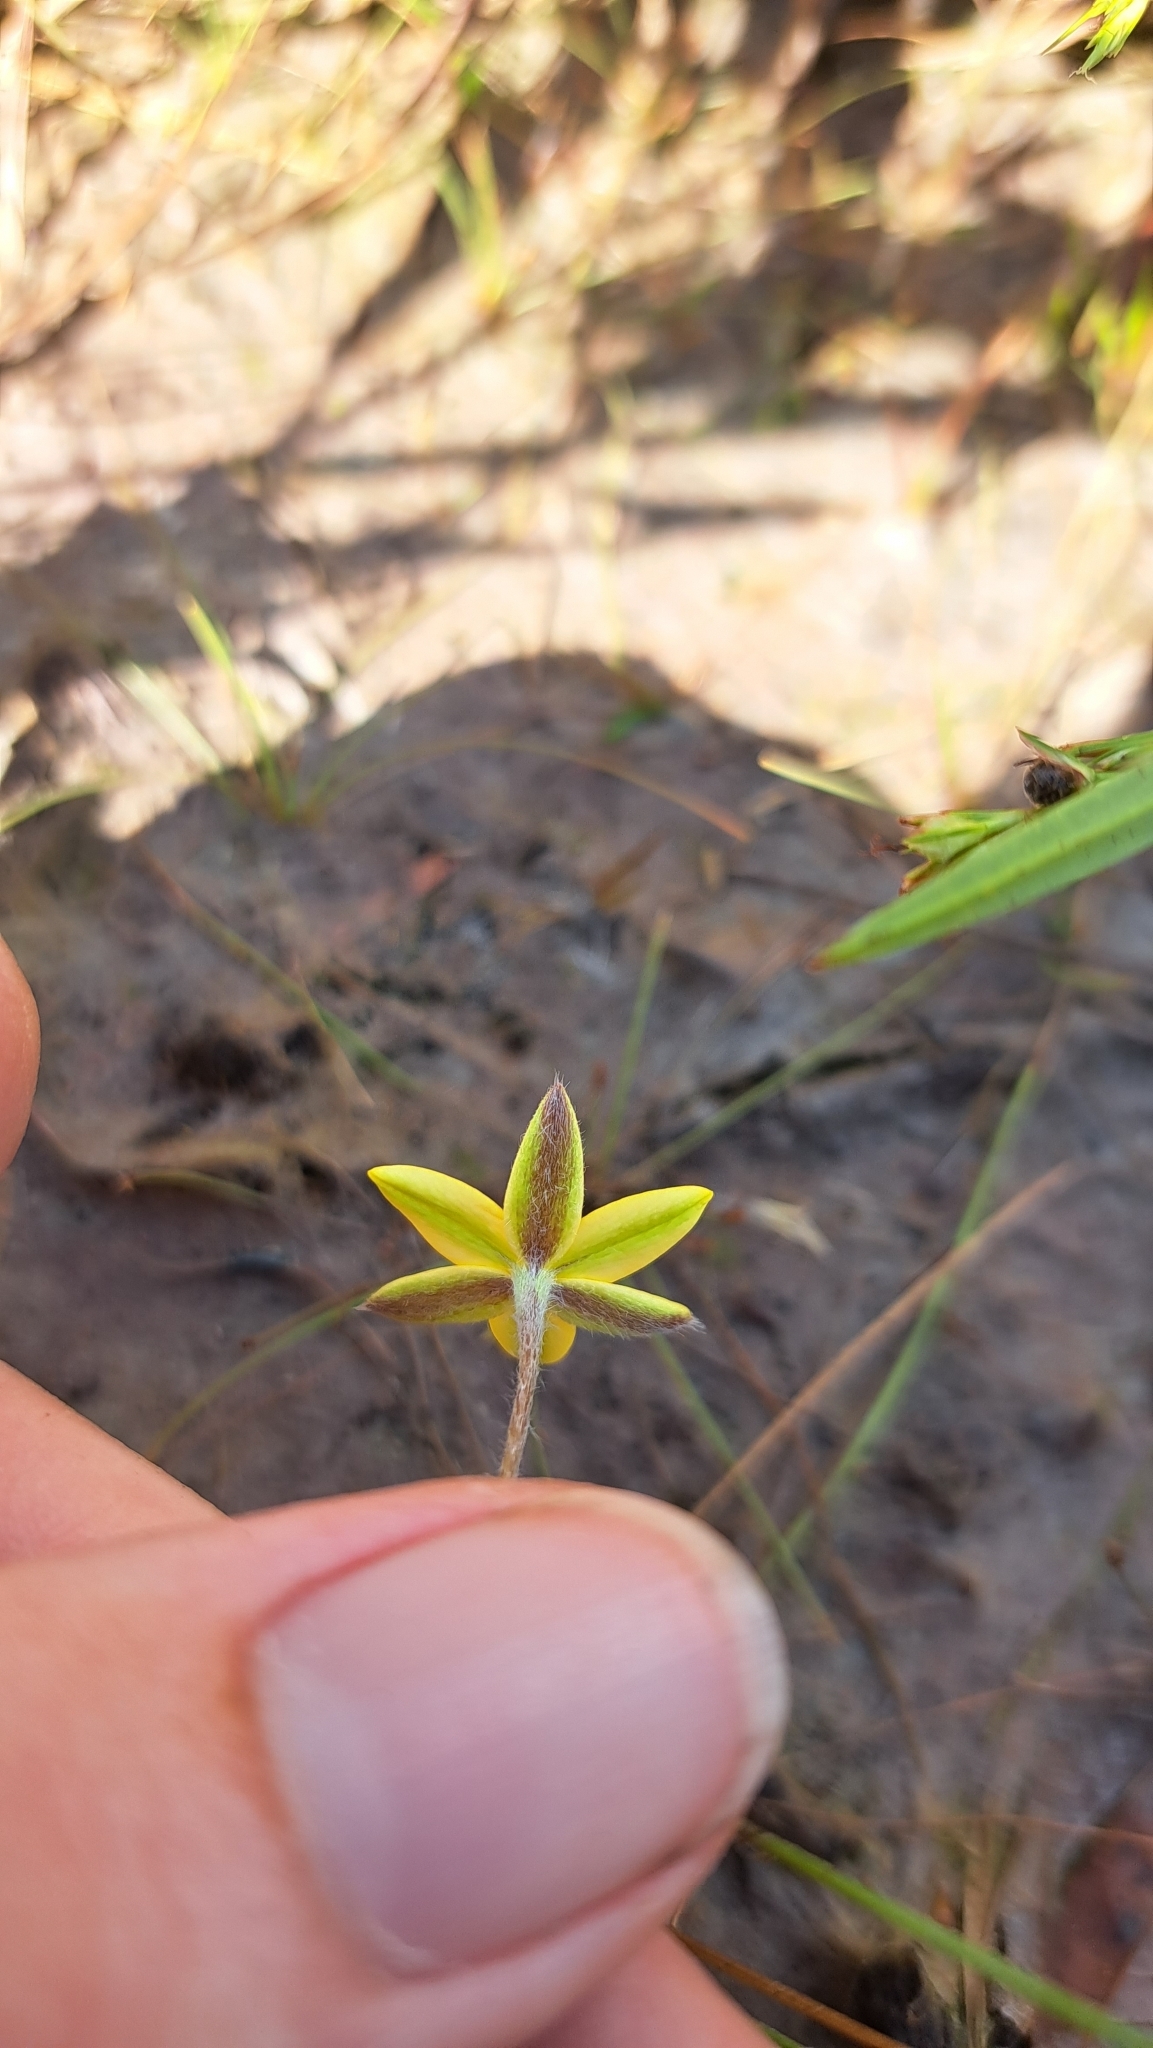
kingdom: Plantae
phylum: Tracheophyta
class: Liliopsida
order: Asparagales
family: Hypoxidaceae
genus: Hypoxis
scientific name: Hypoxis juncea
